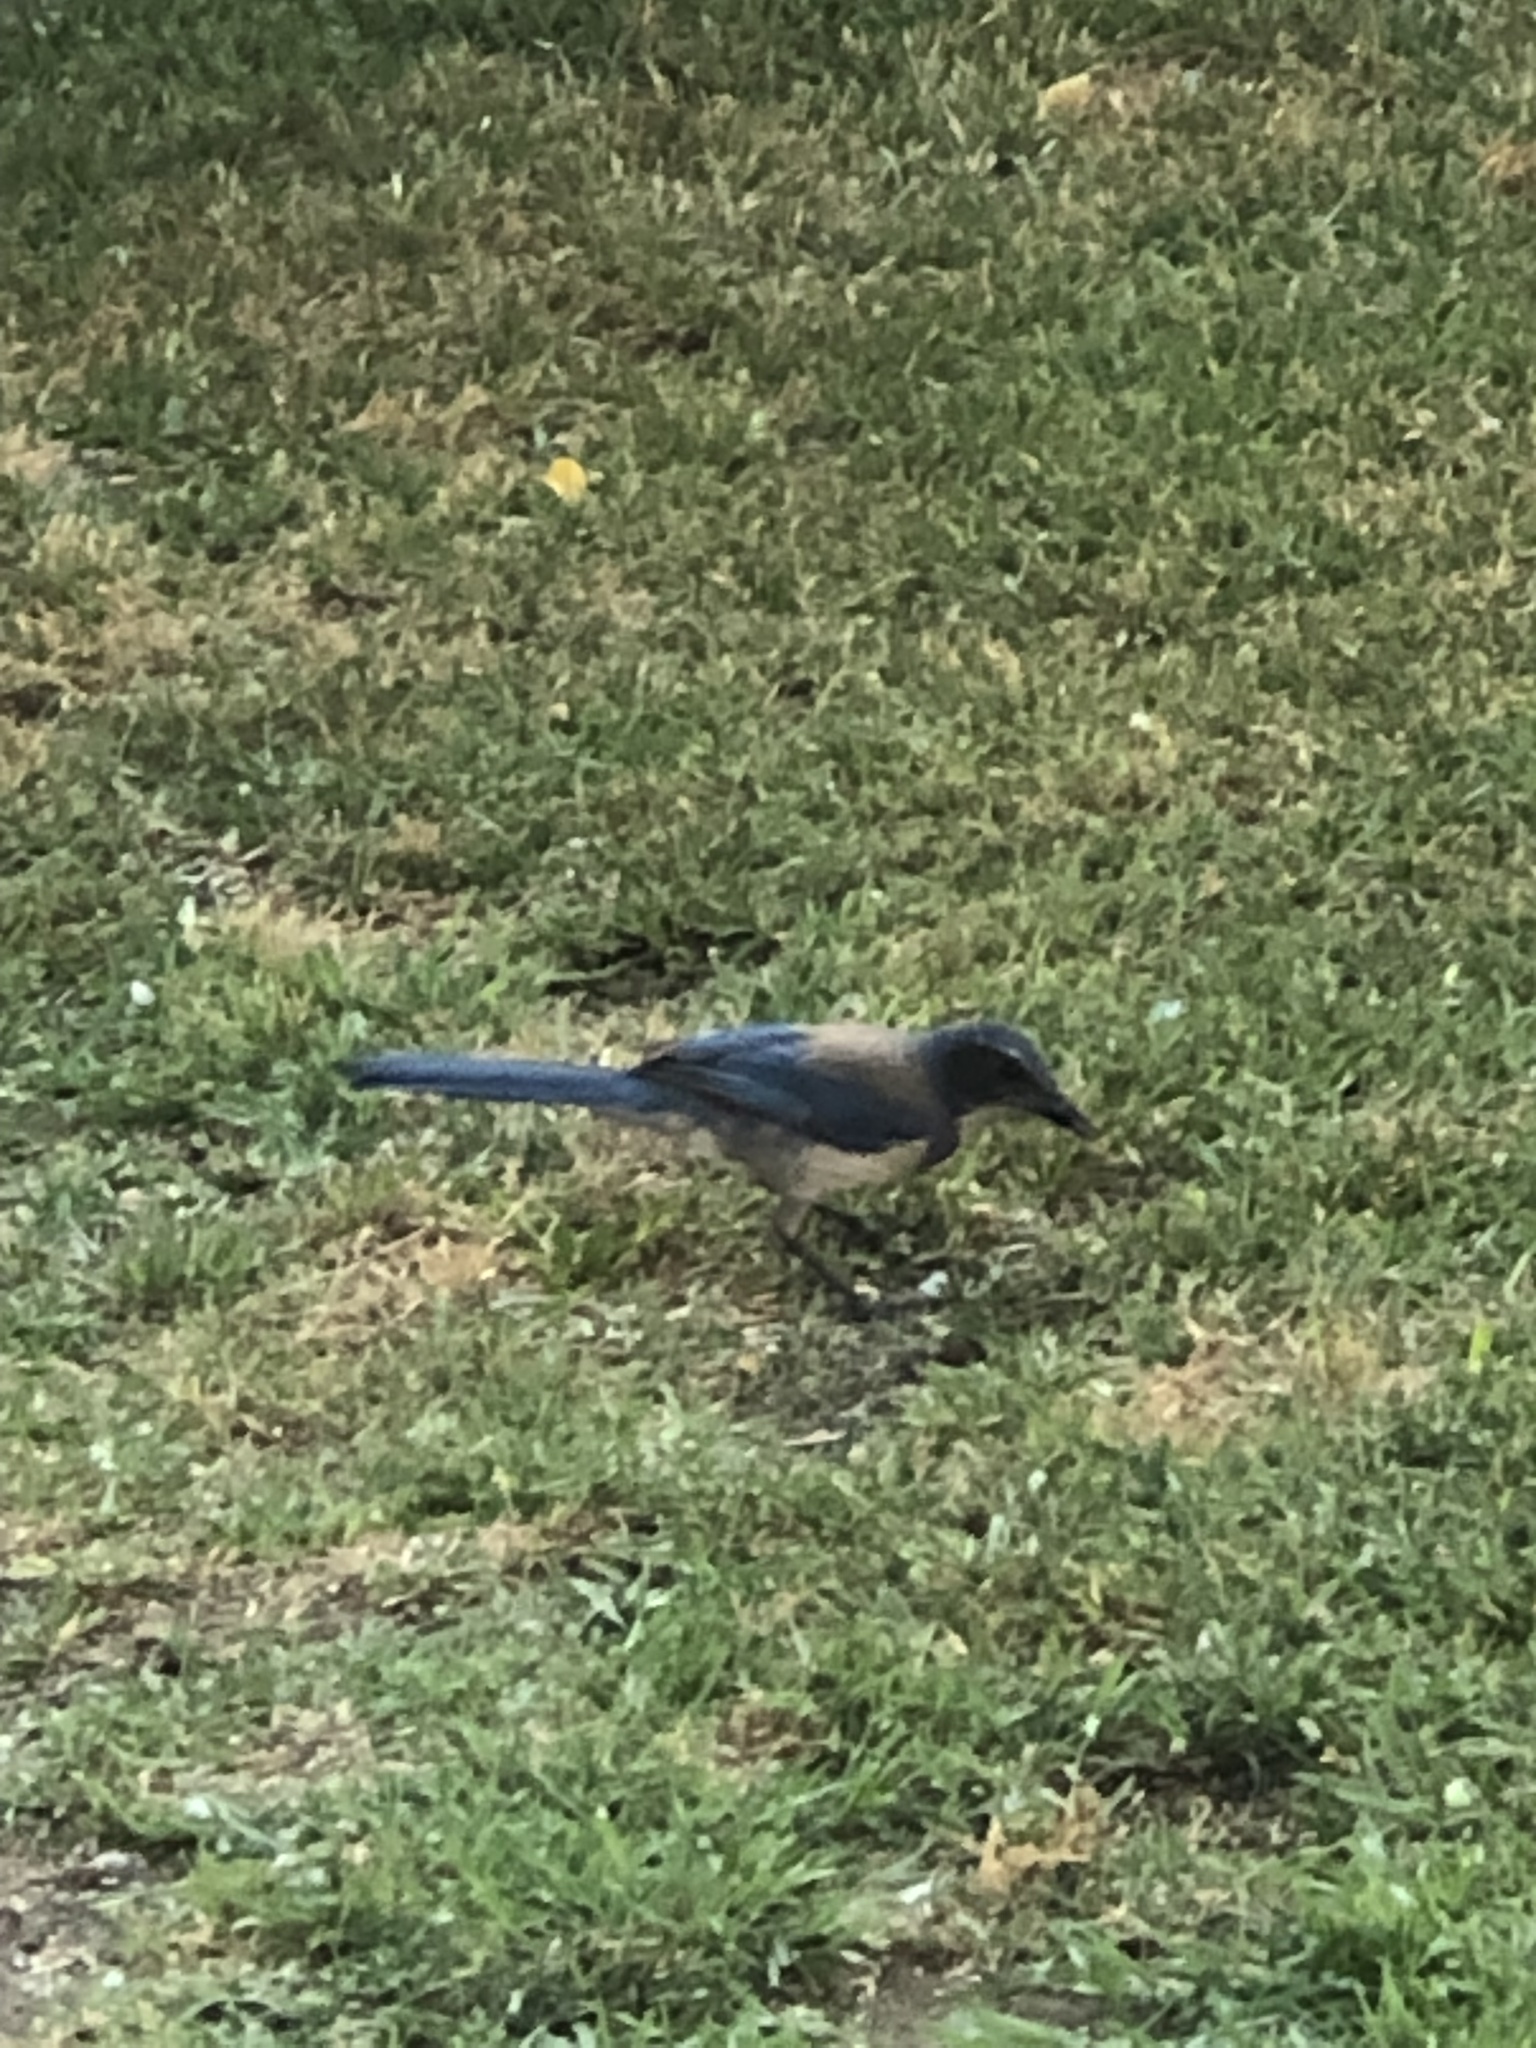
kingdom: Animalia
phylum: Chordata
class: Aves
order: Passeriformes
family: Corvidae
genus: Aphelocoma
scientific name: Aphelocoma californica
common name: California scrub-jay
